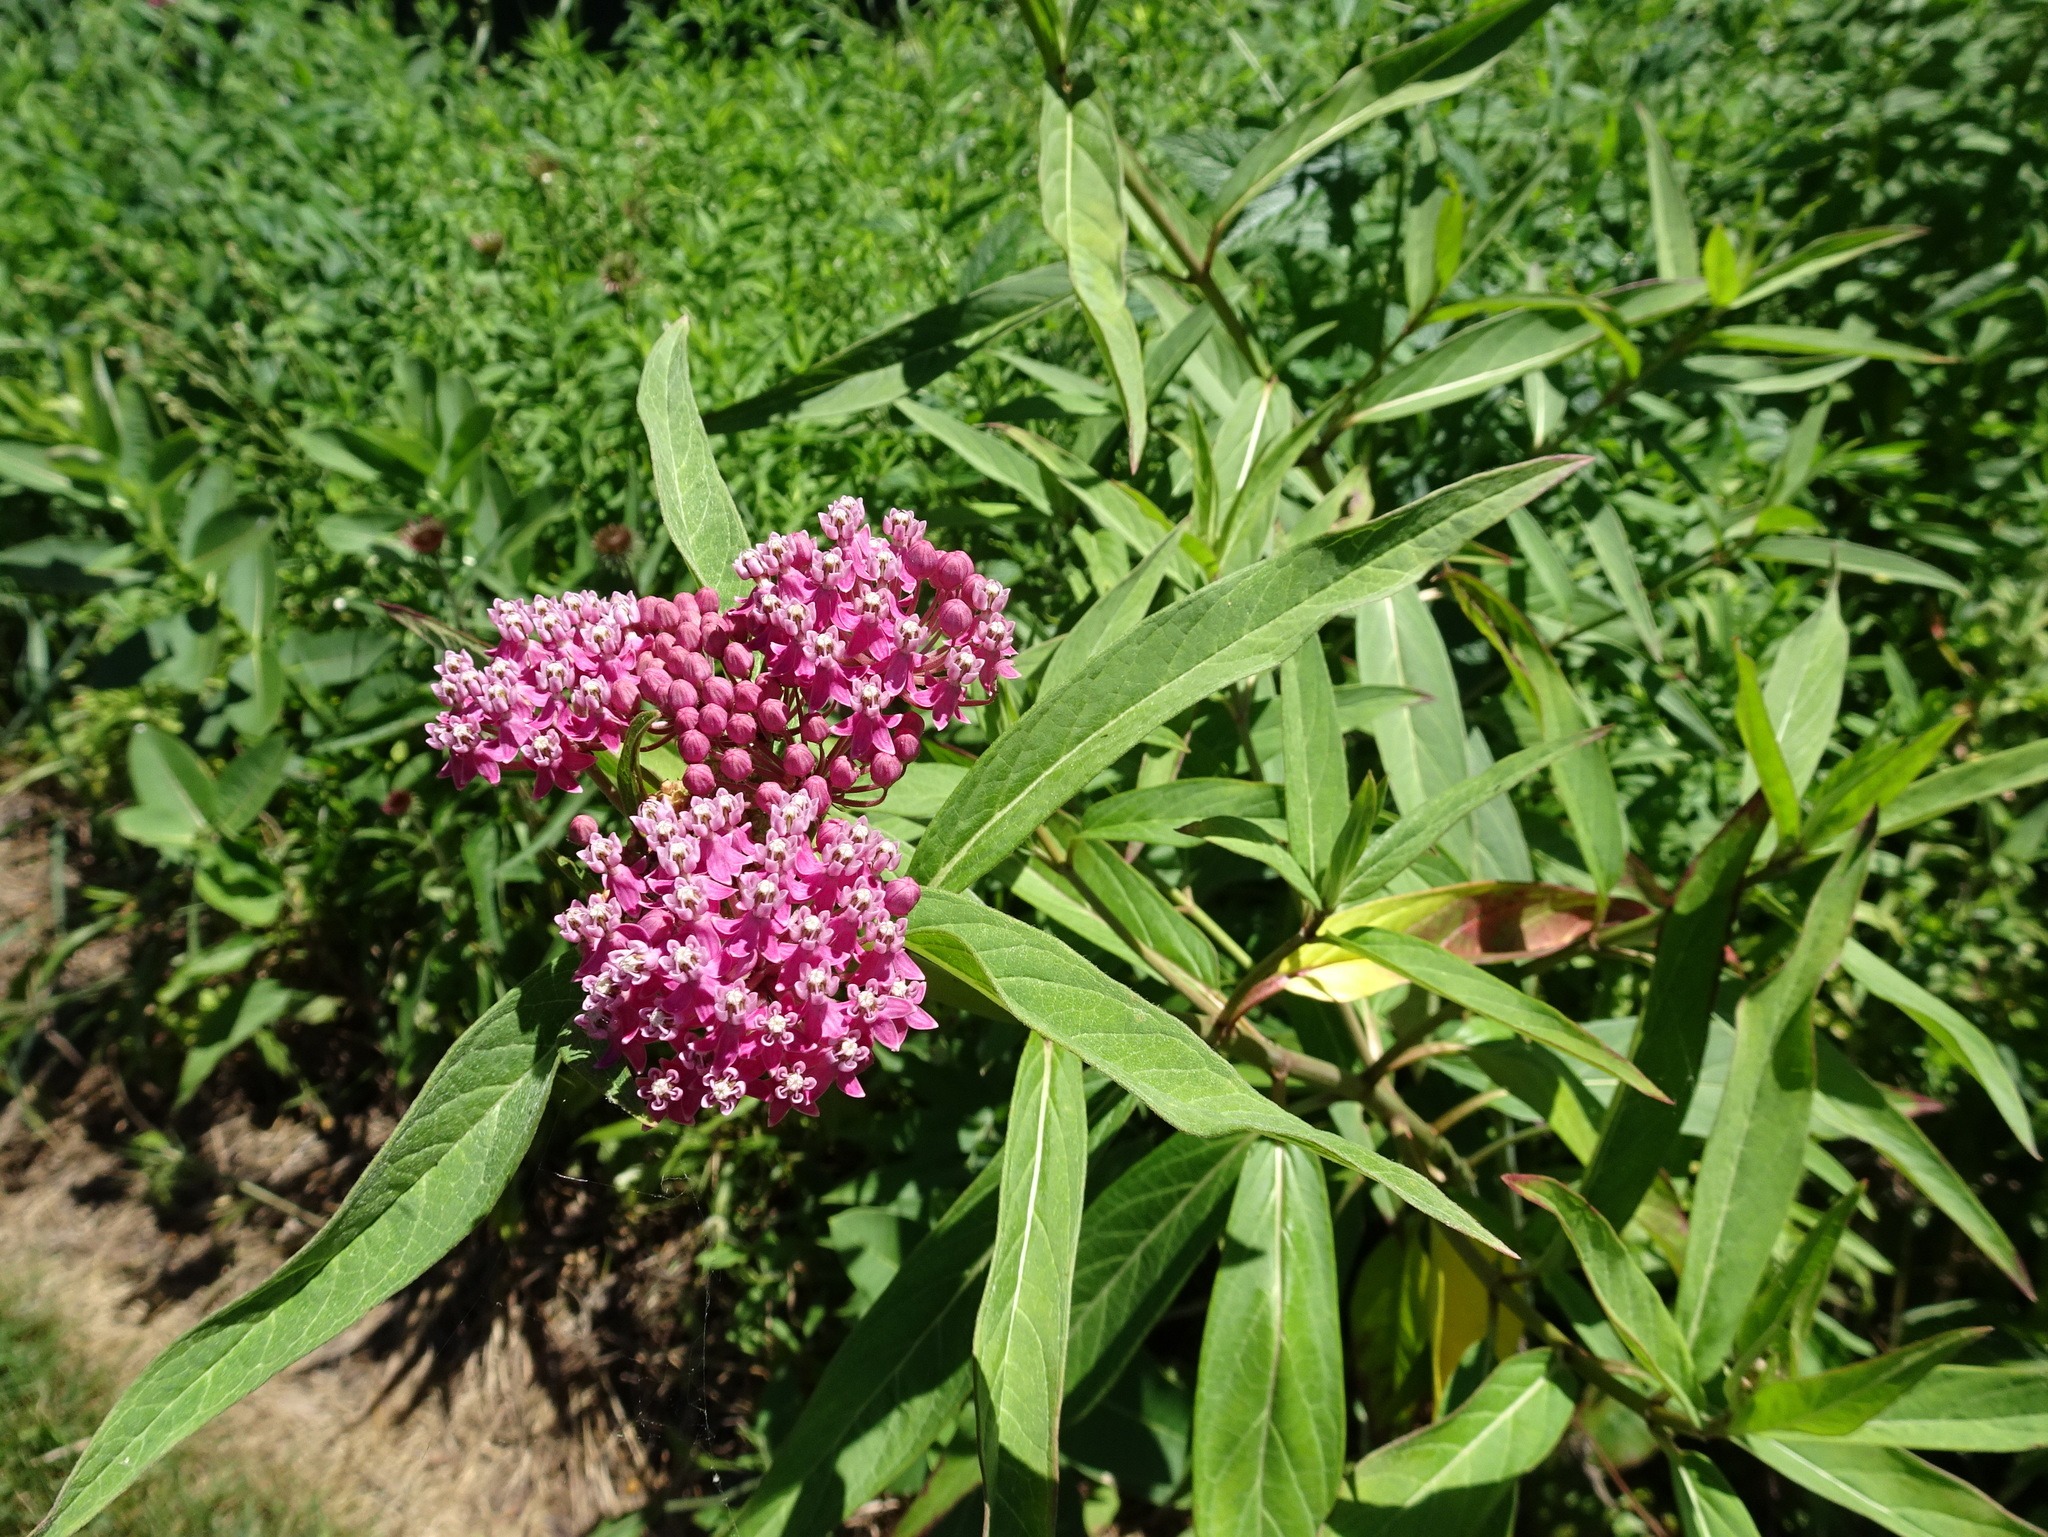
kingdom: Plantae
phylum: Tracheophyta
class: Magnoliopsida
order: Gentianales
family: Apocynaceae
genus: Asclepias
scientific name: Asclepias incarnata
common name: Swamp milkweed
